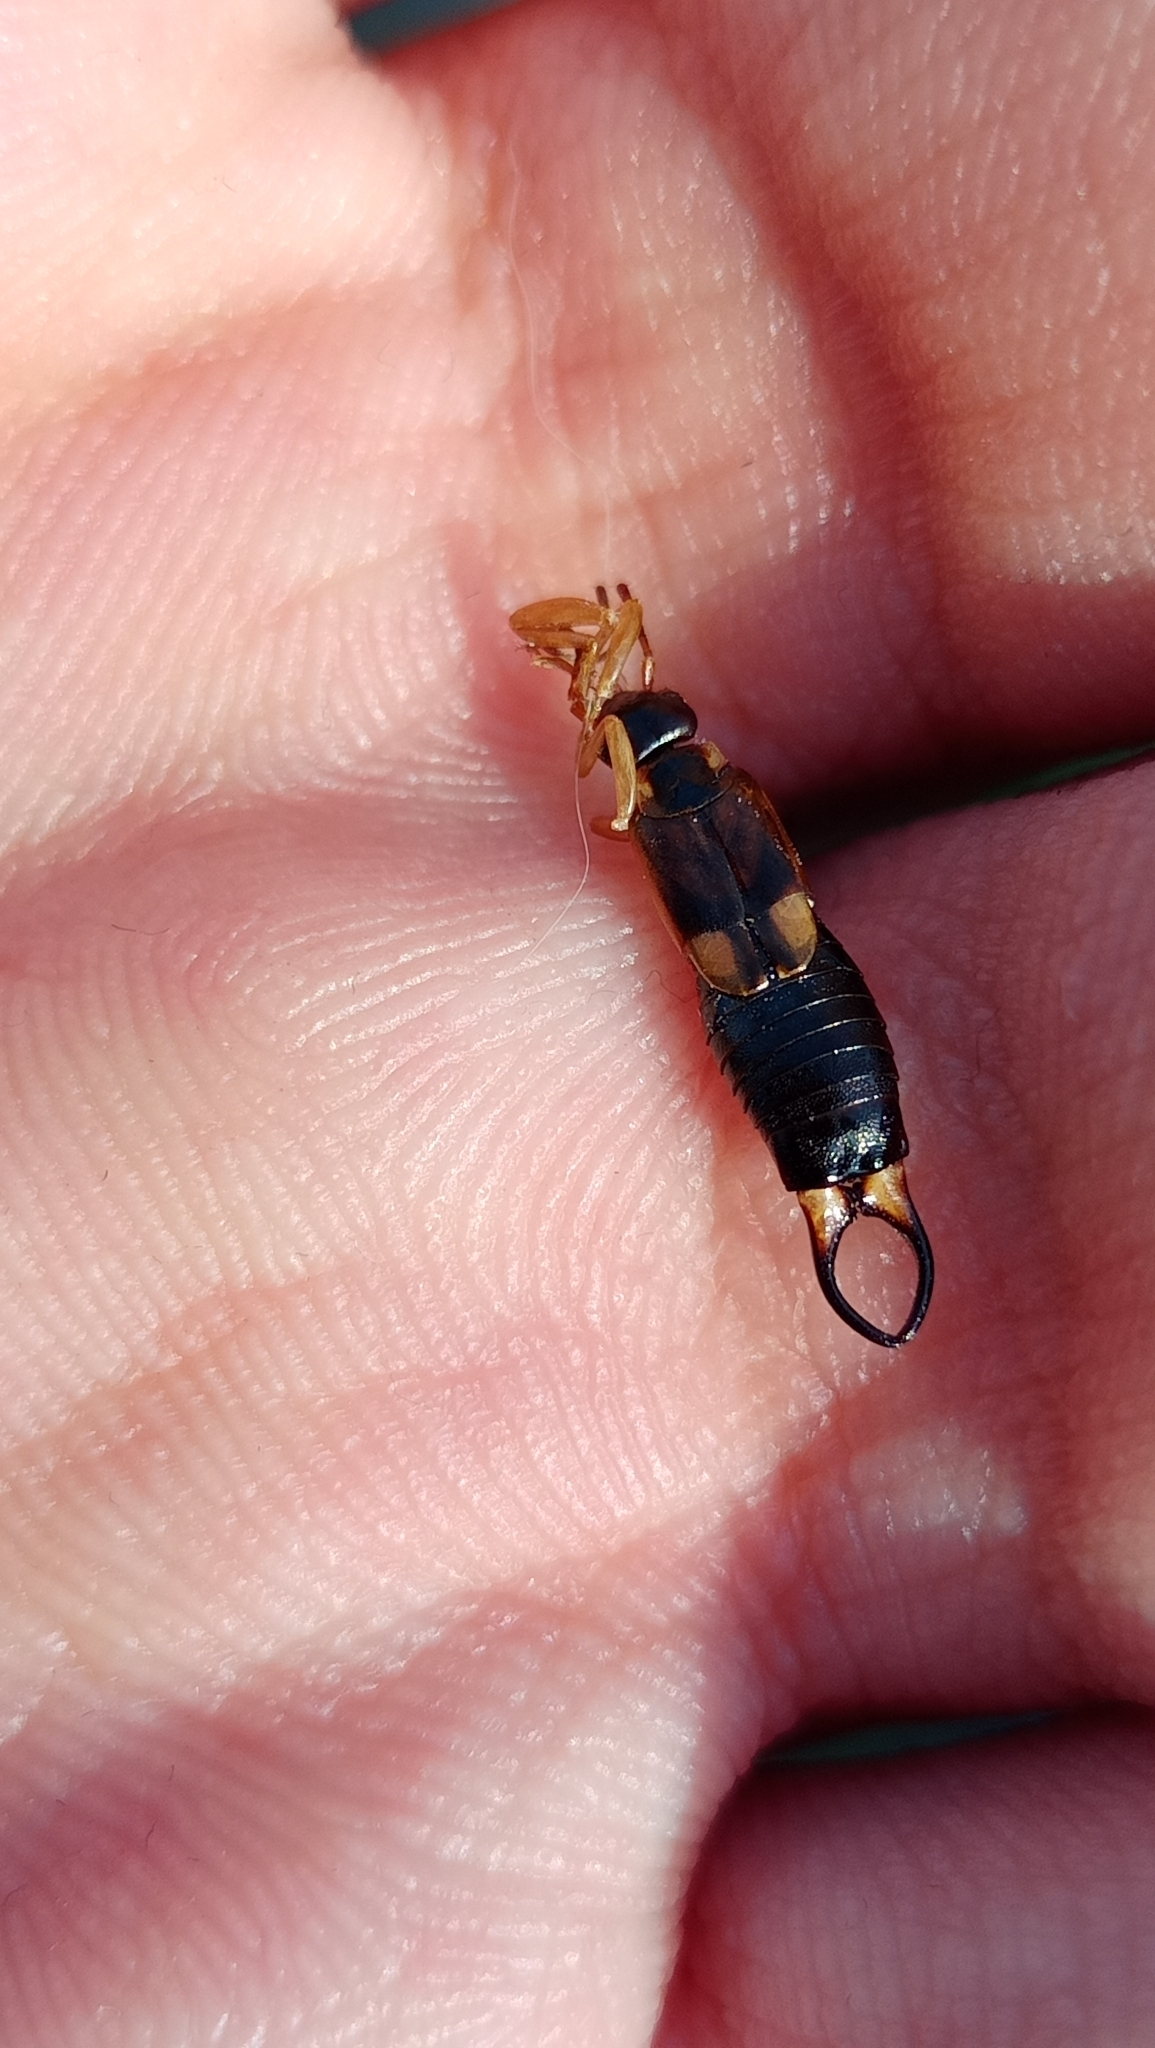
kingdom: Animalia
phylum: Arthropoda
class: Insecta
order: Dermaptera
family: Forficulidae
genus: Forficula
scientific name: Forficula lurida
